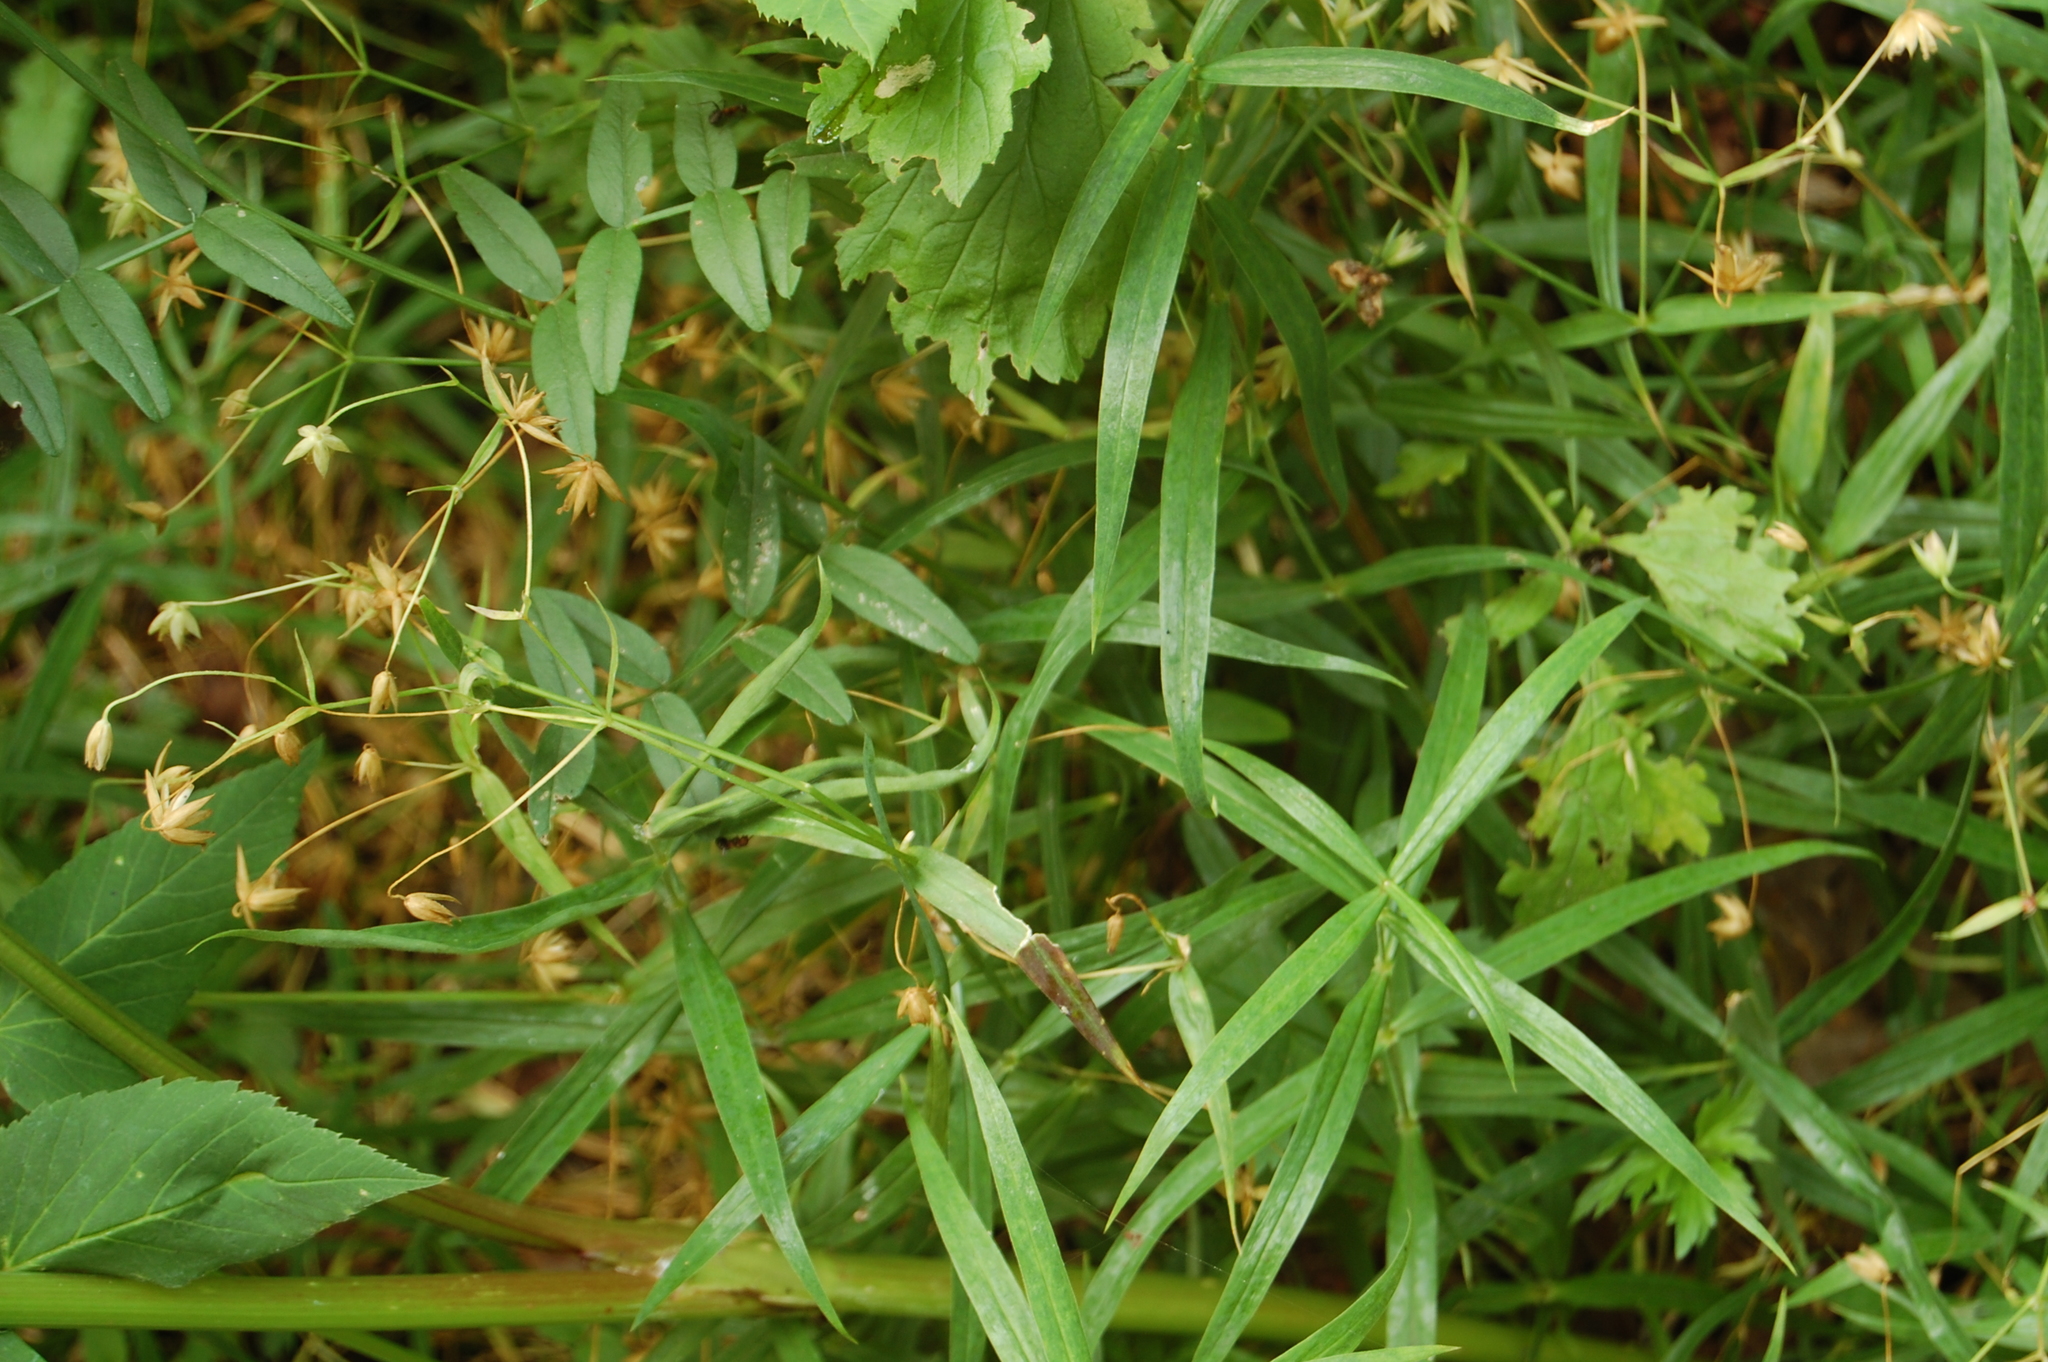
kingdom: Plantae
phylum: Tracheophyta
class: Magnoliopsida
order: Caryophyllales
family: Caryophyllaceae
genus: Rabelera
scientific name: Rabelera holostea
